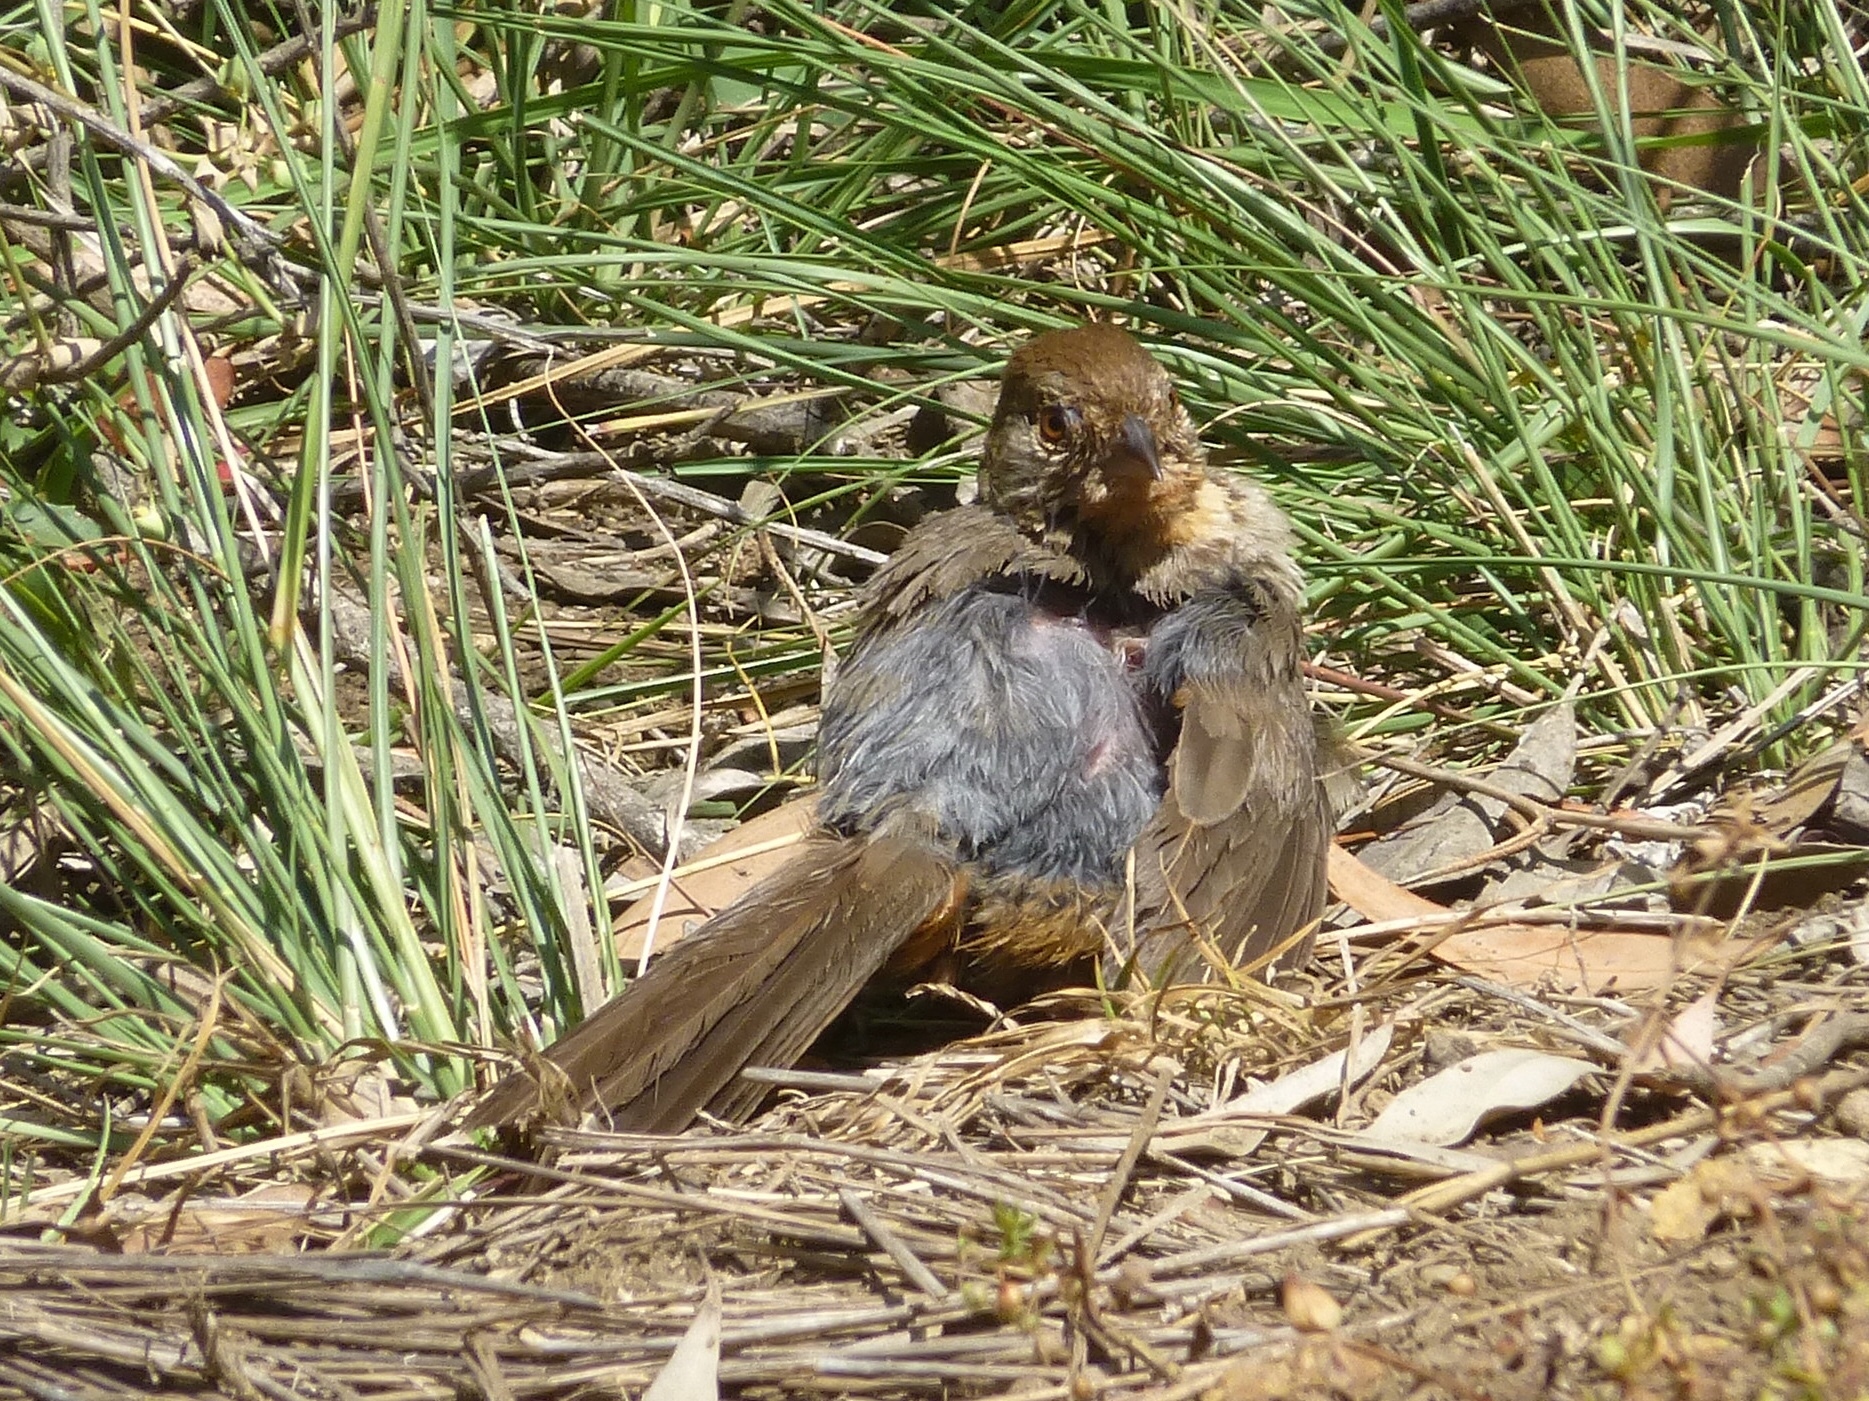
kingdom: Animalia
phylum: Chordata
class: Aves
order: Passeriformes
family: Passerellidae
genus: Melozone
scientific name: Melozone crissalis
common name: California towhee
